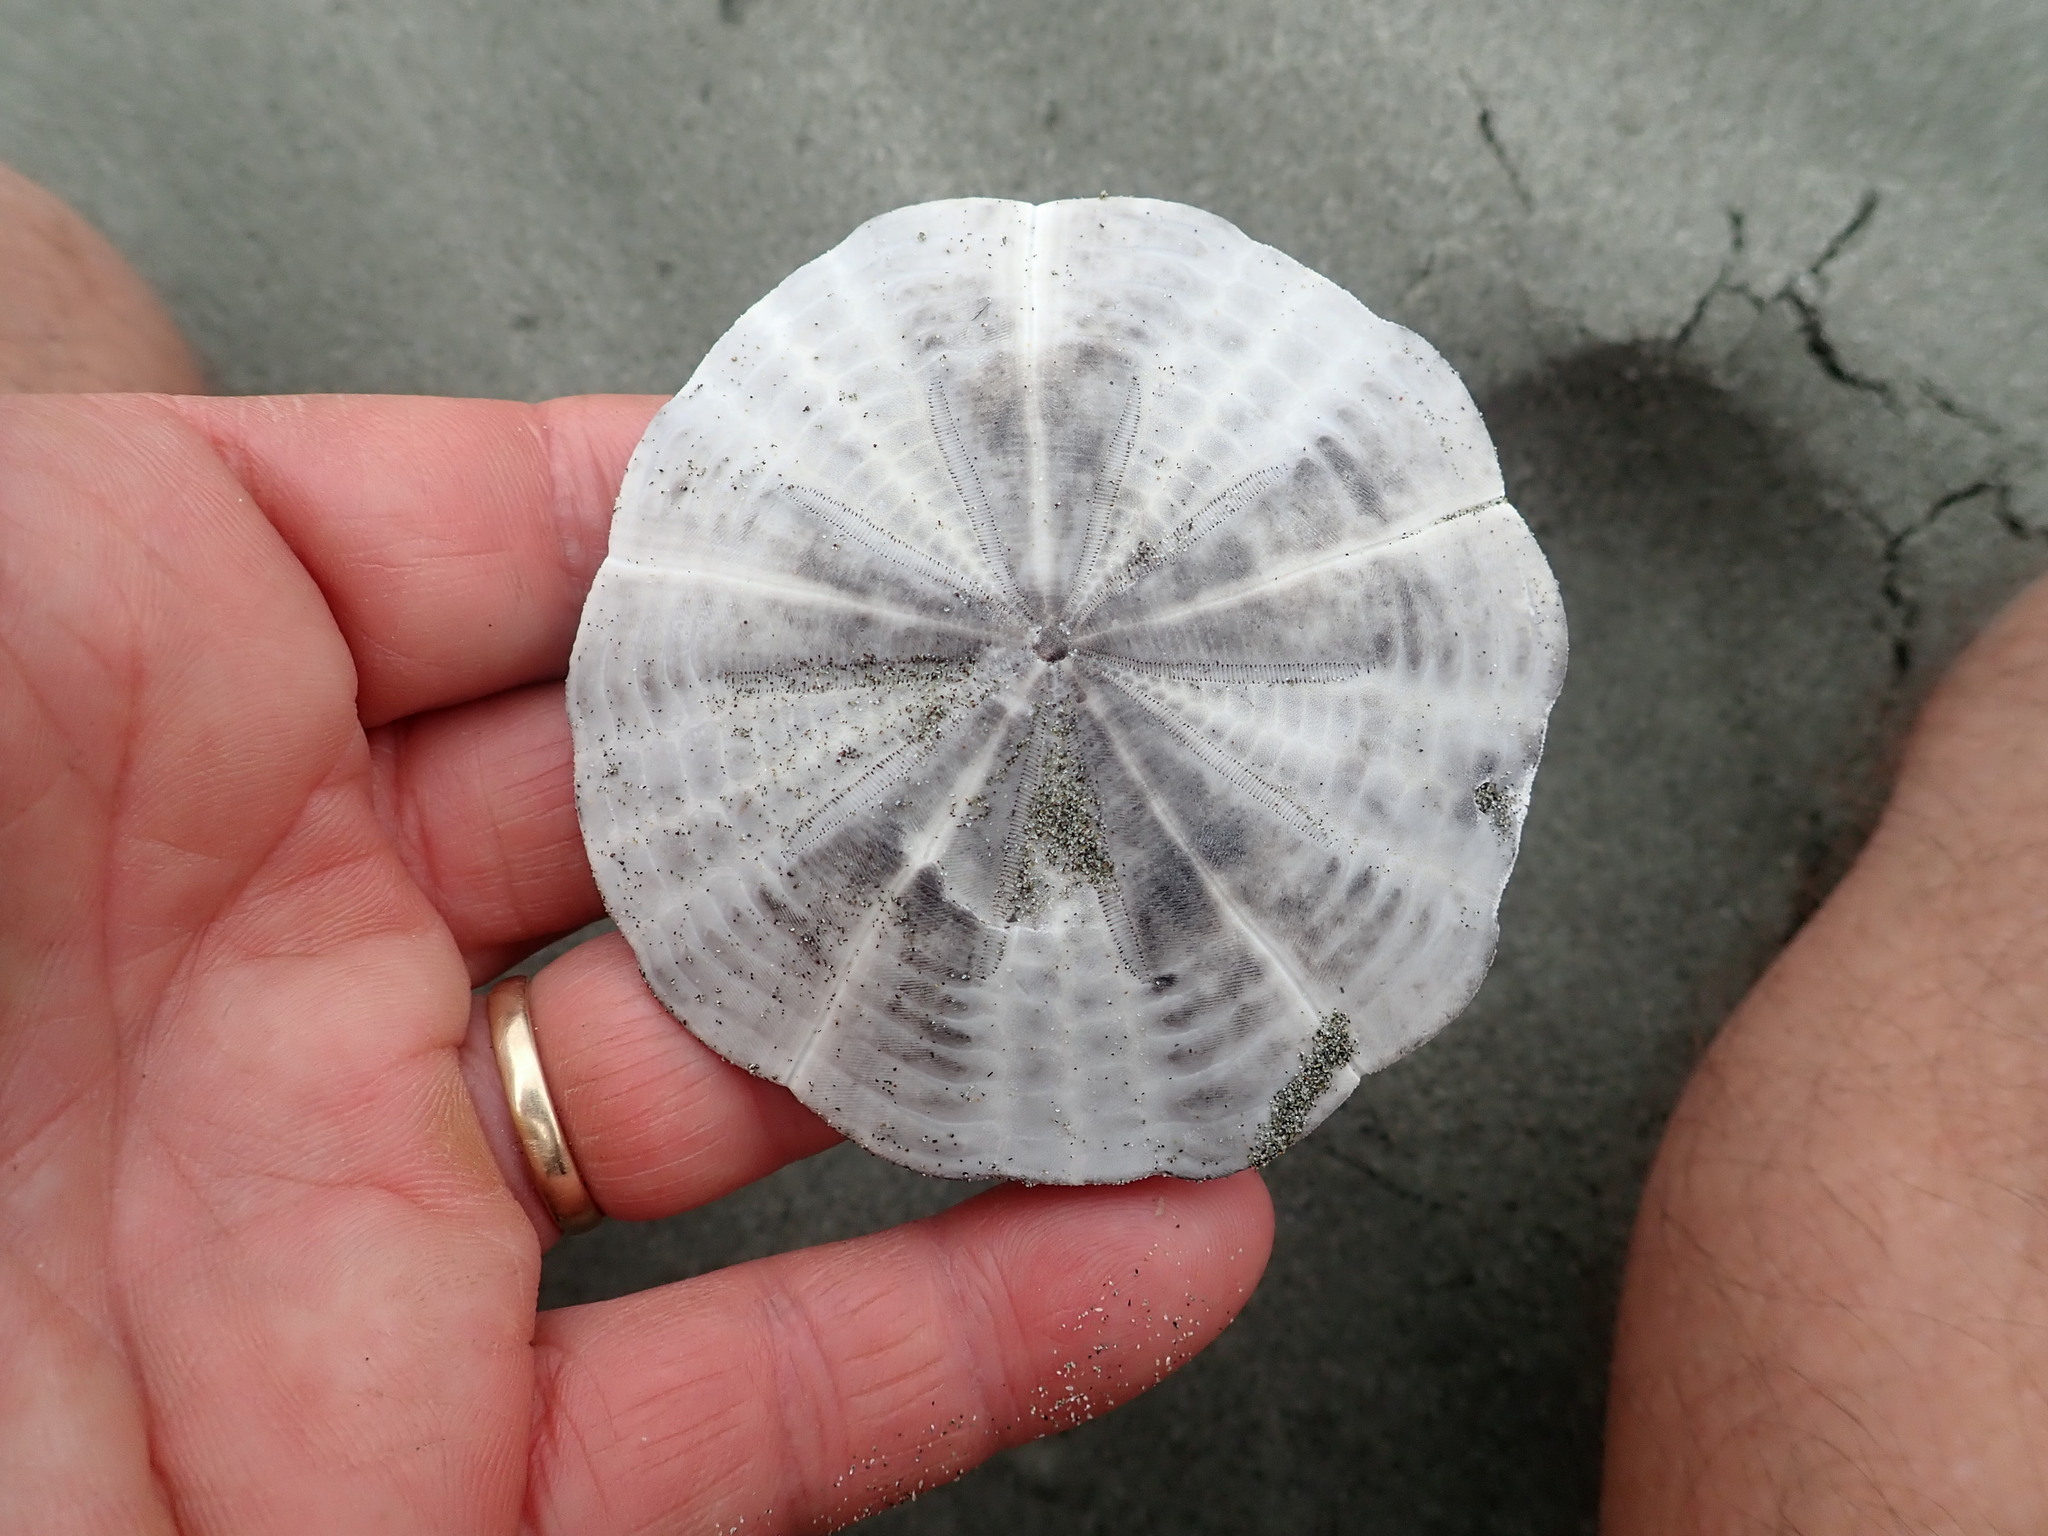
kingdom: Animalia
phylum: Echinodermata
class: Echinoidea
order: Clypeasteroida
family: Clypeasteridae
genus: Fellaster
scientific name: Fellaster zelandiae
